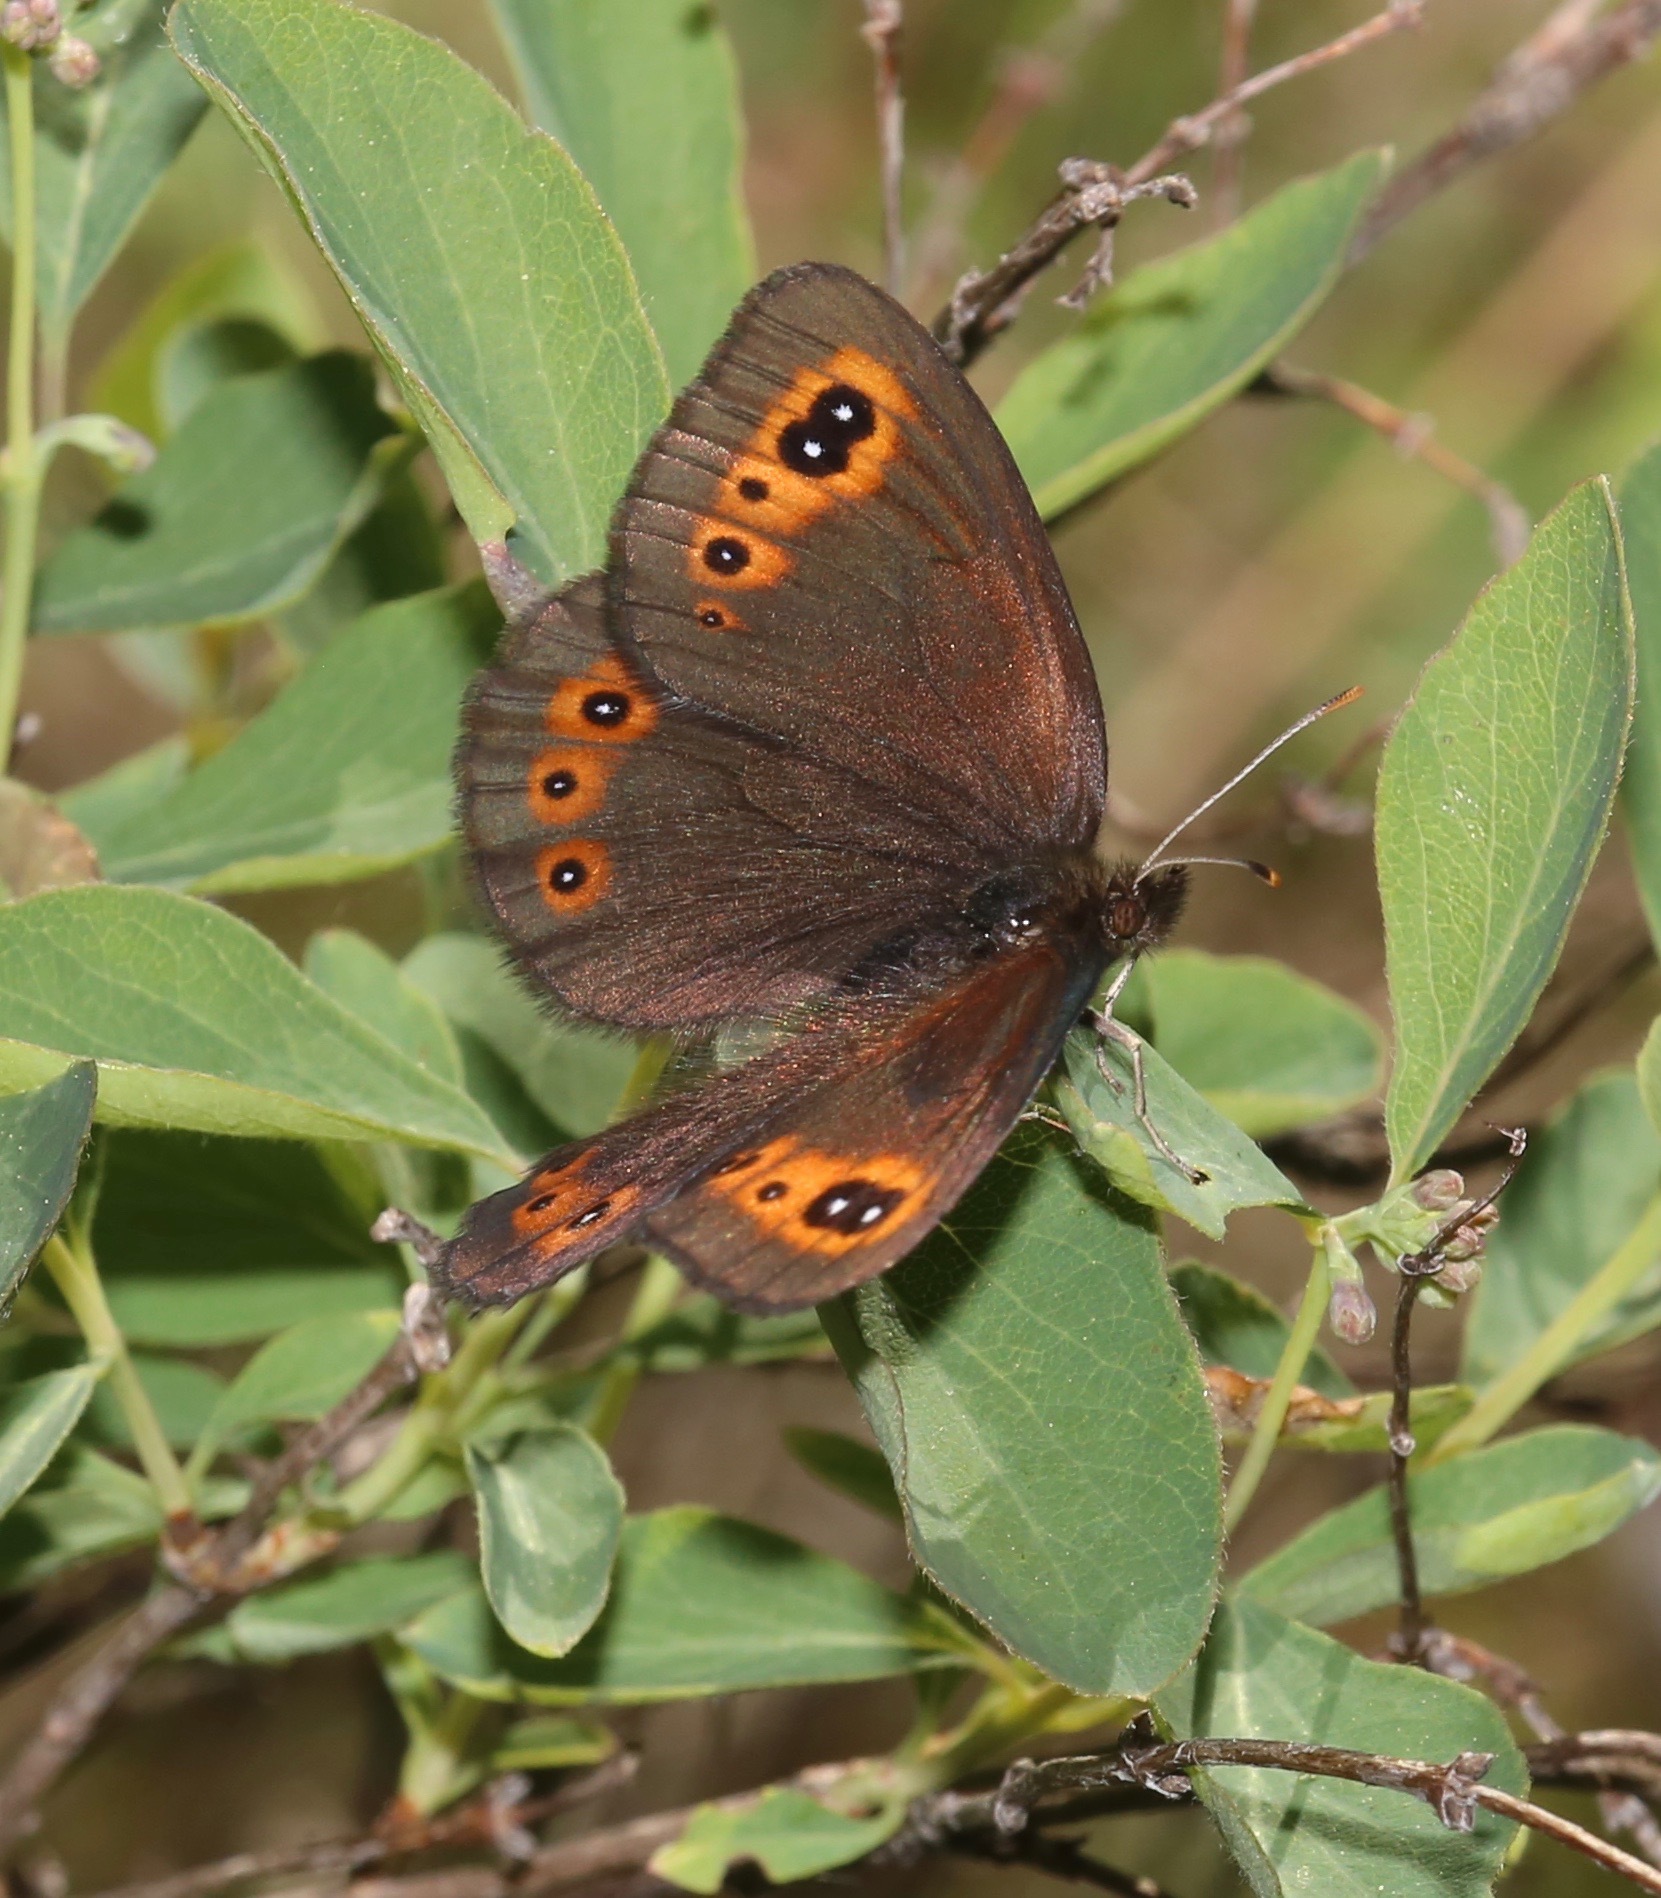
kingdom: Animalia
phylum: Arthropoda
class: Insecta
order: Lepidoptera
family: Nymphalidae
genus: Erebia
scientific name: Erebia epipsodea
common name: Common alpine
